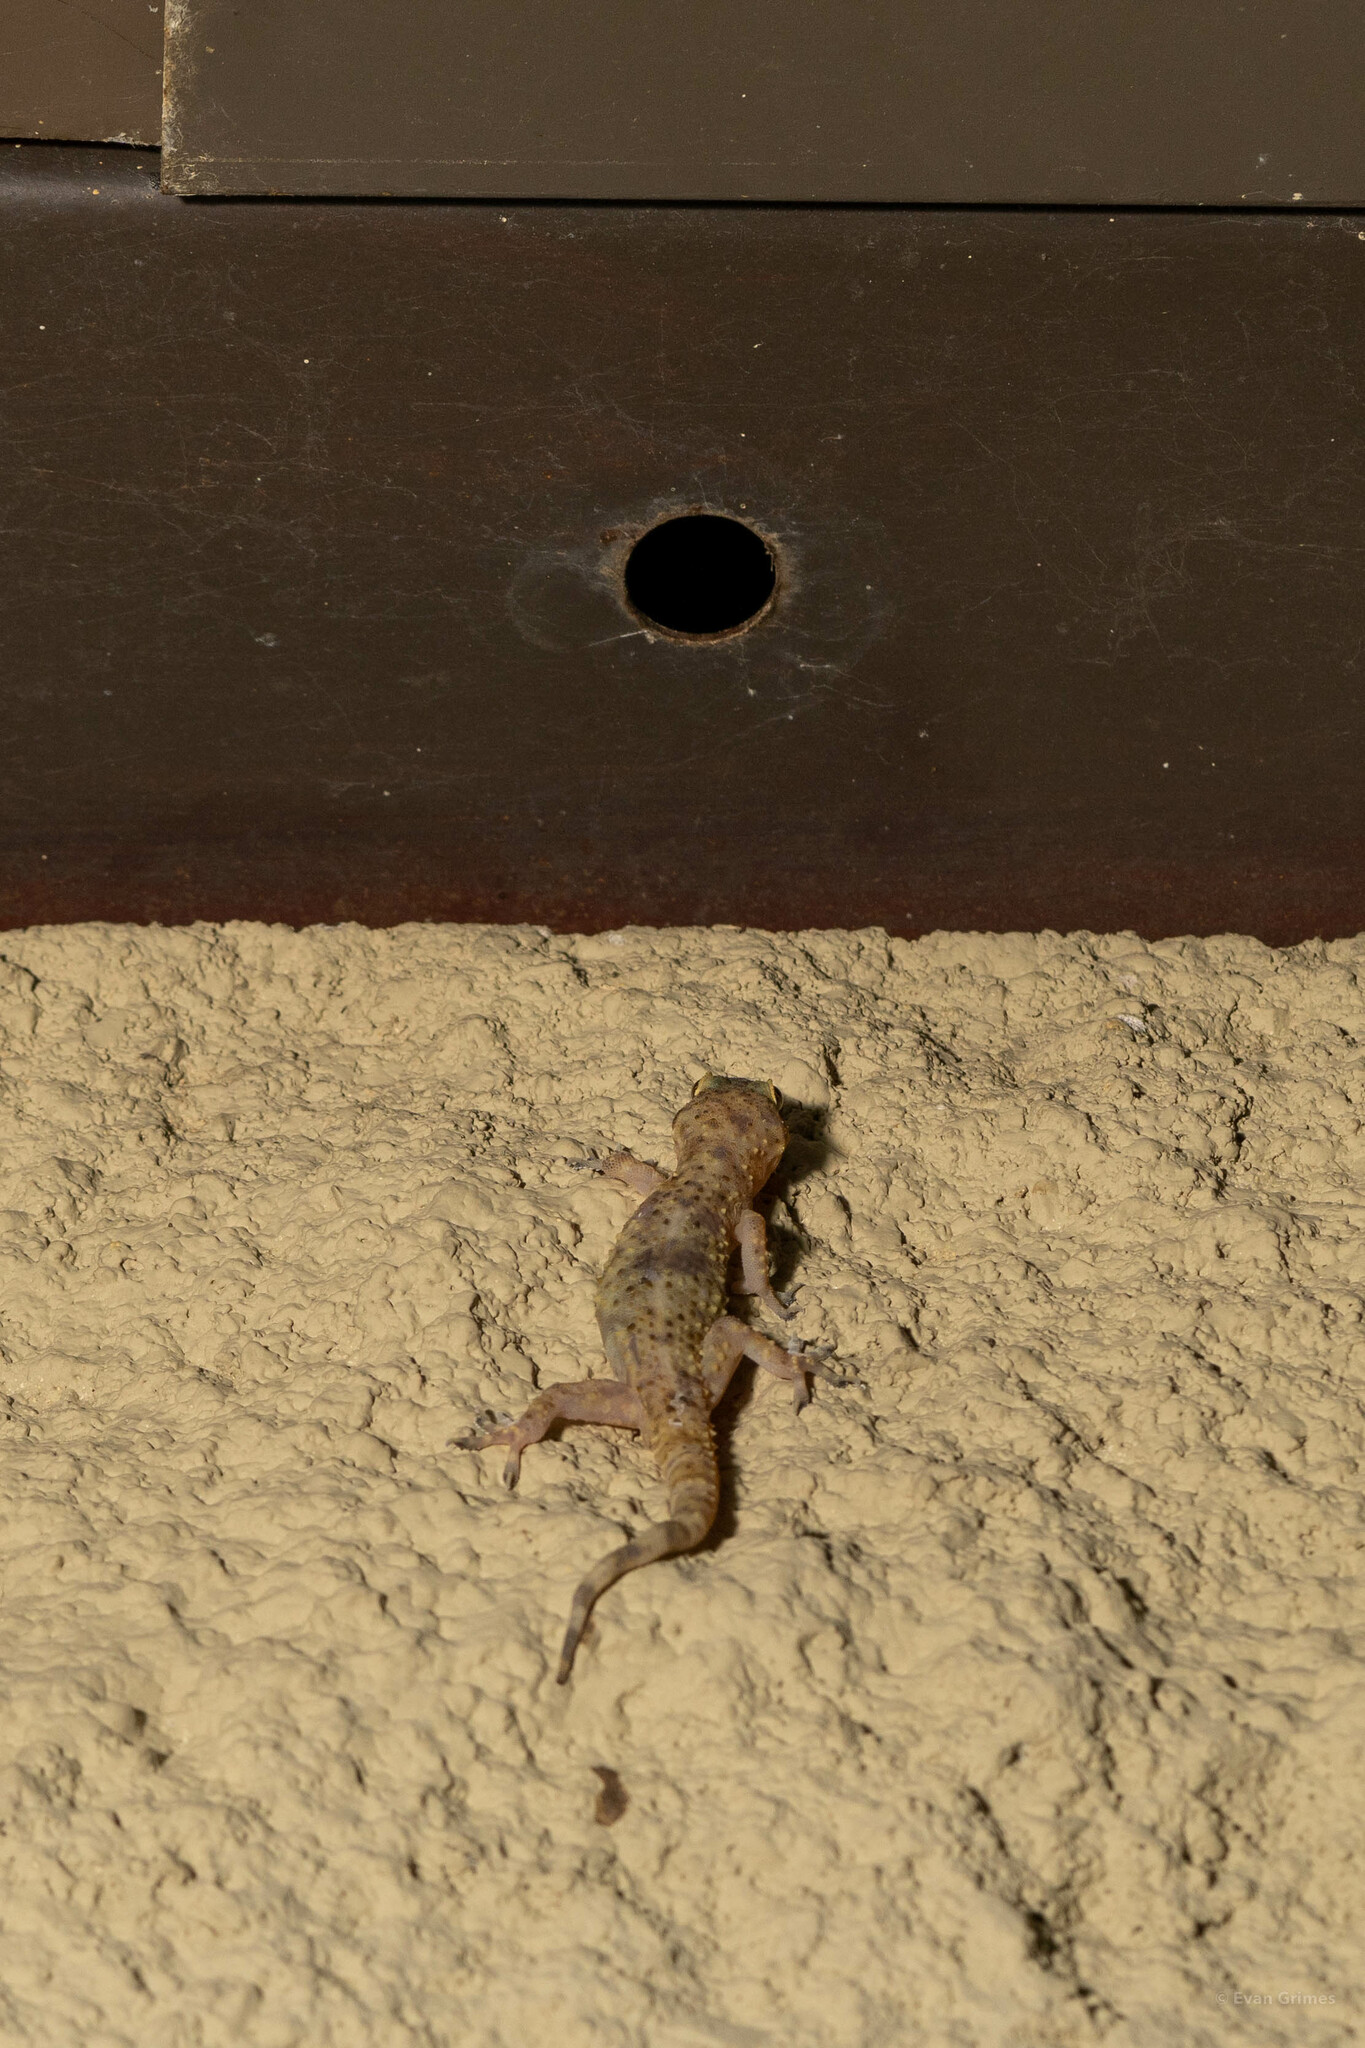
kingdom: Animalia
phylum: Chordata
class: Squamata
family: Gekkonidae
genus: Hemidactylus
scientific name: Hemidactylus turcicus
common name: Turkish gecko
